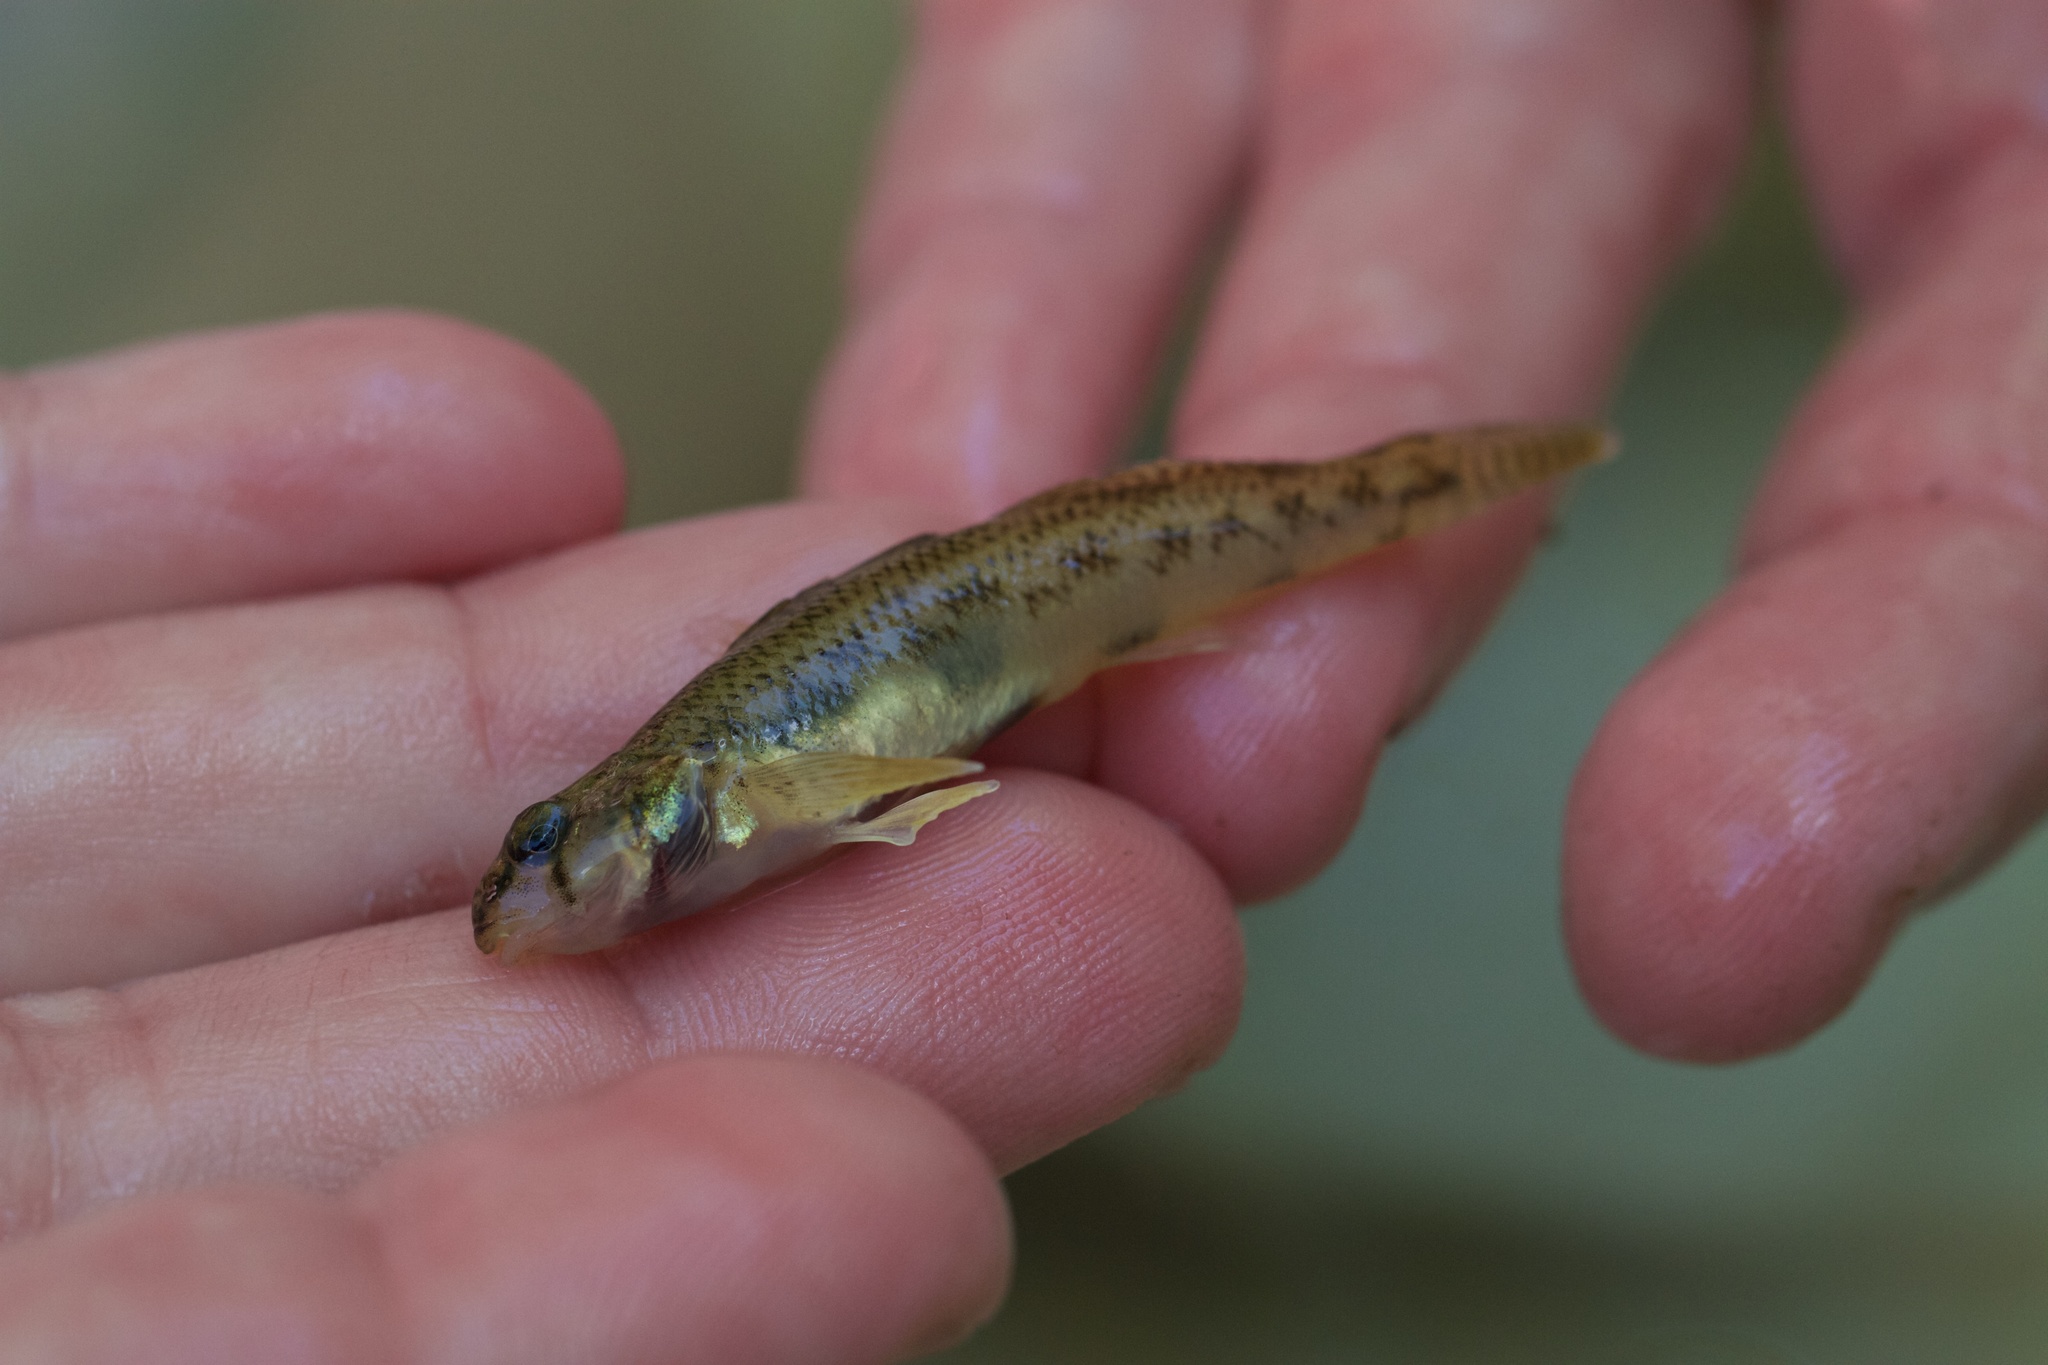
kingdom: Animalia
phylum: Chordata
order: Perciformes
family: Percidae
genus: Etheostoma
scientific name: Etheostoma olmstedi
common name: Tessellated darter
